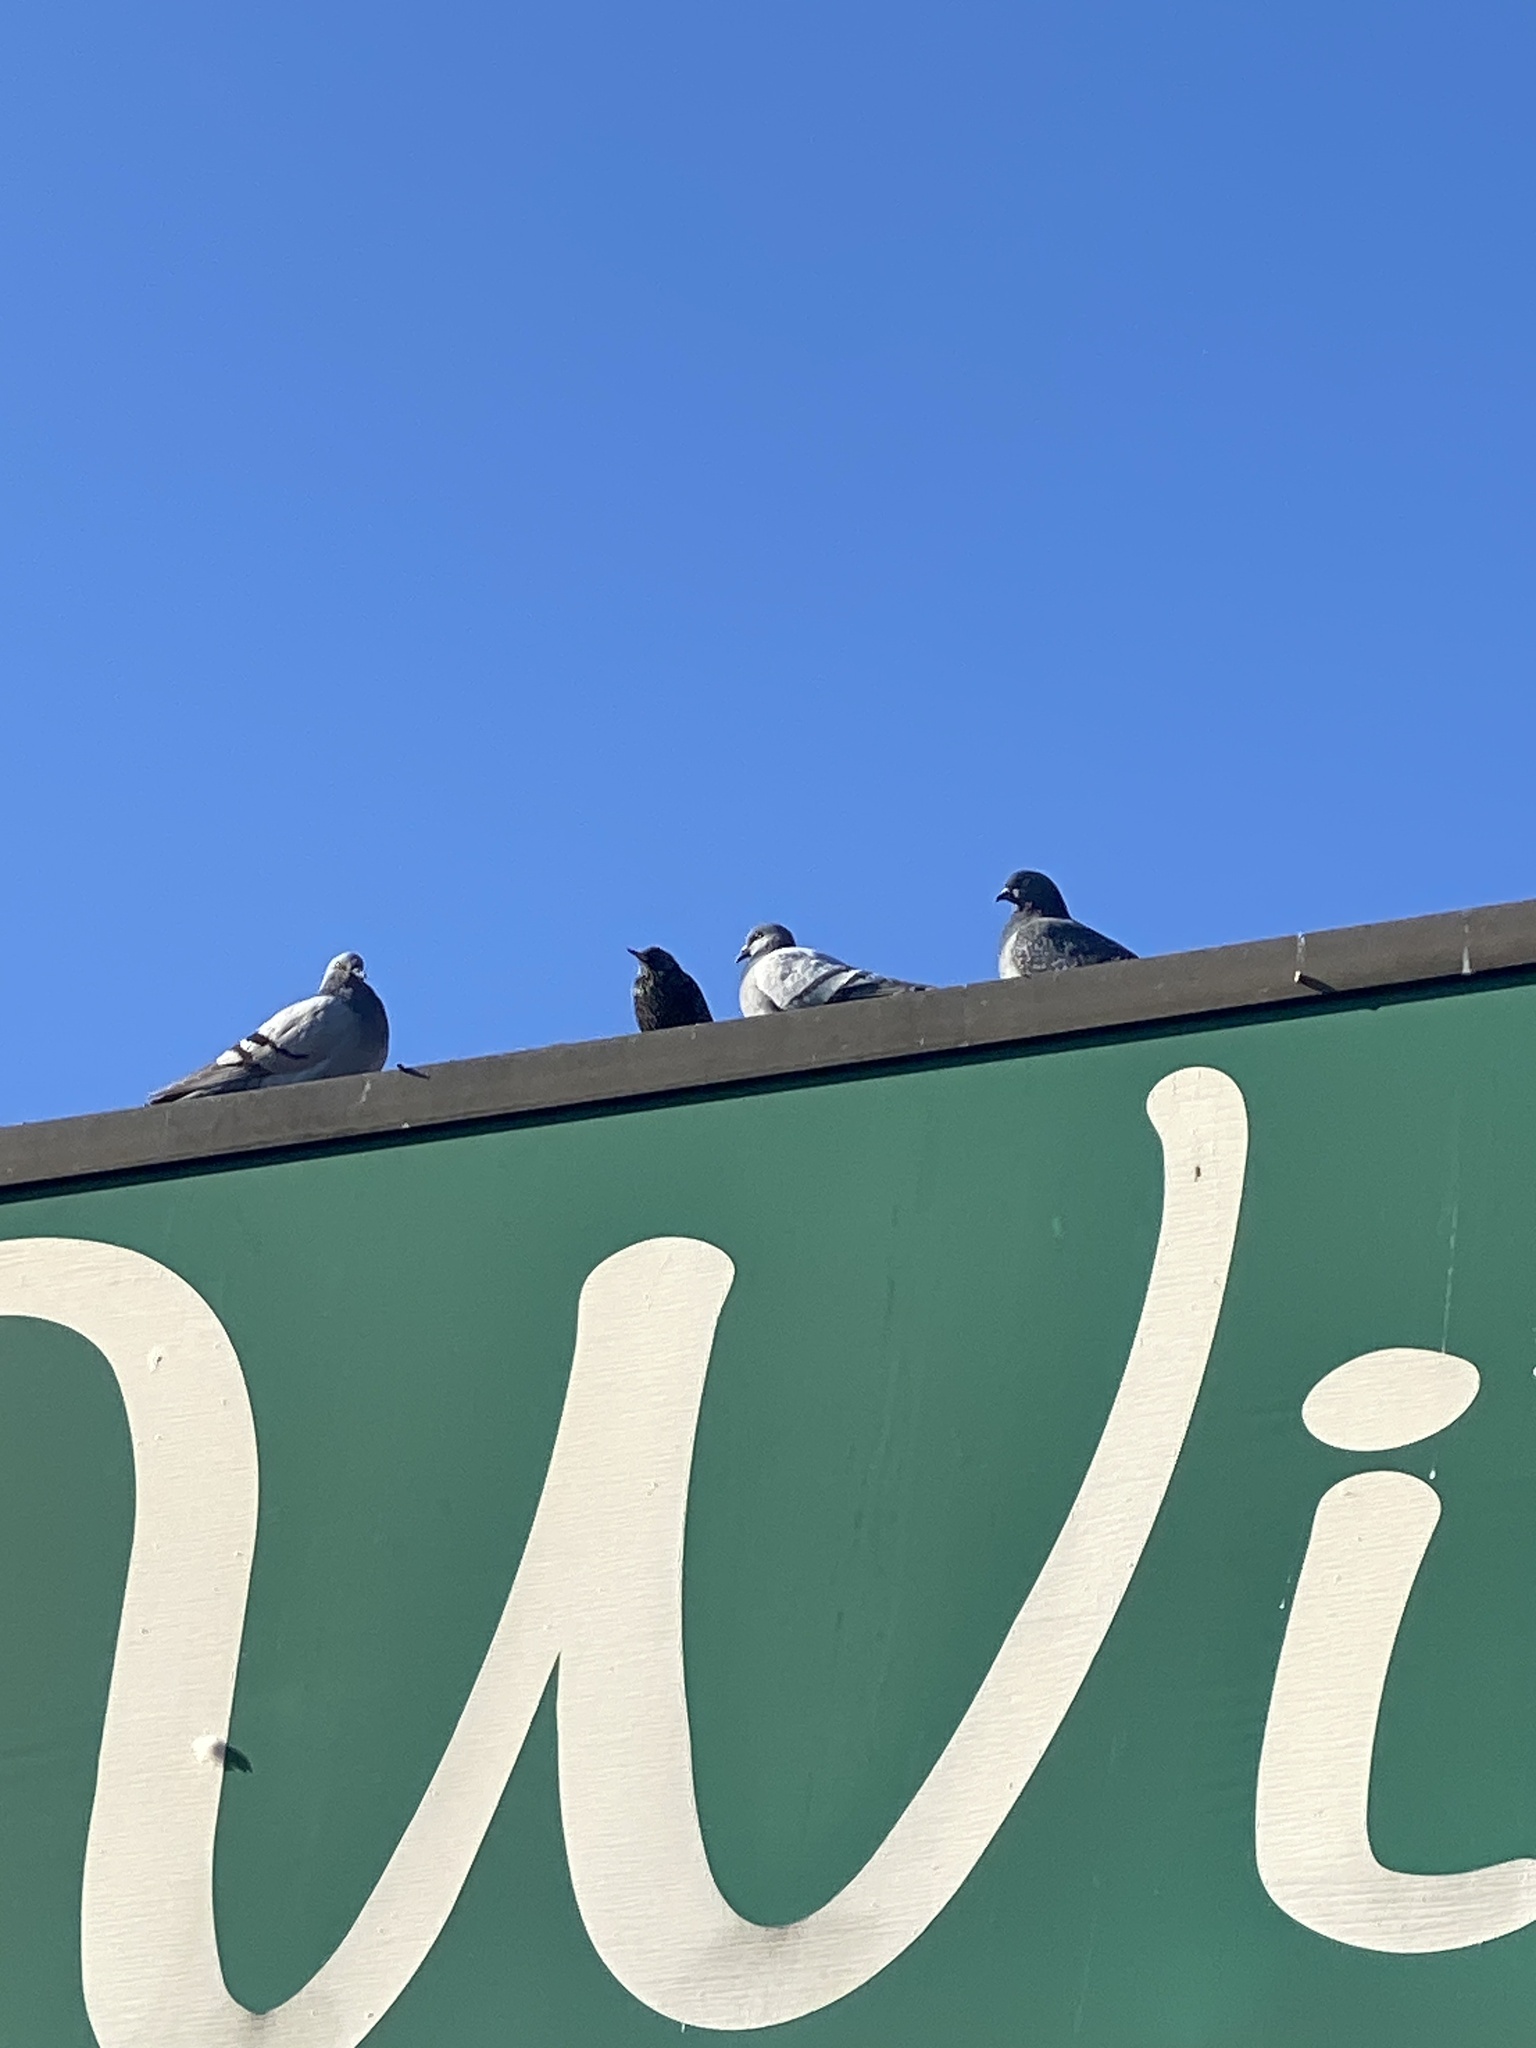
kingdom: Animalia
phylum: Chordata
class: Aves
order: Columbiformes
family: Columbidae
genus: Columba
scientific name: Columba livia
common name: Rock pigeon
